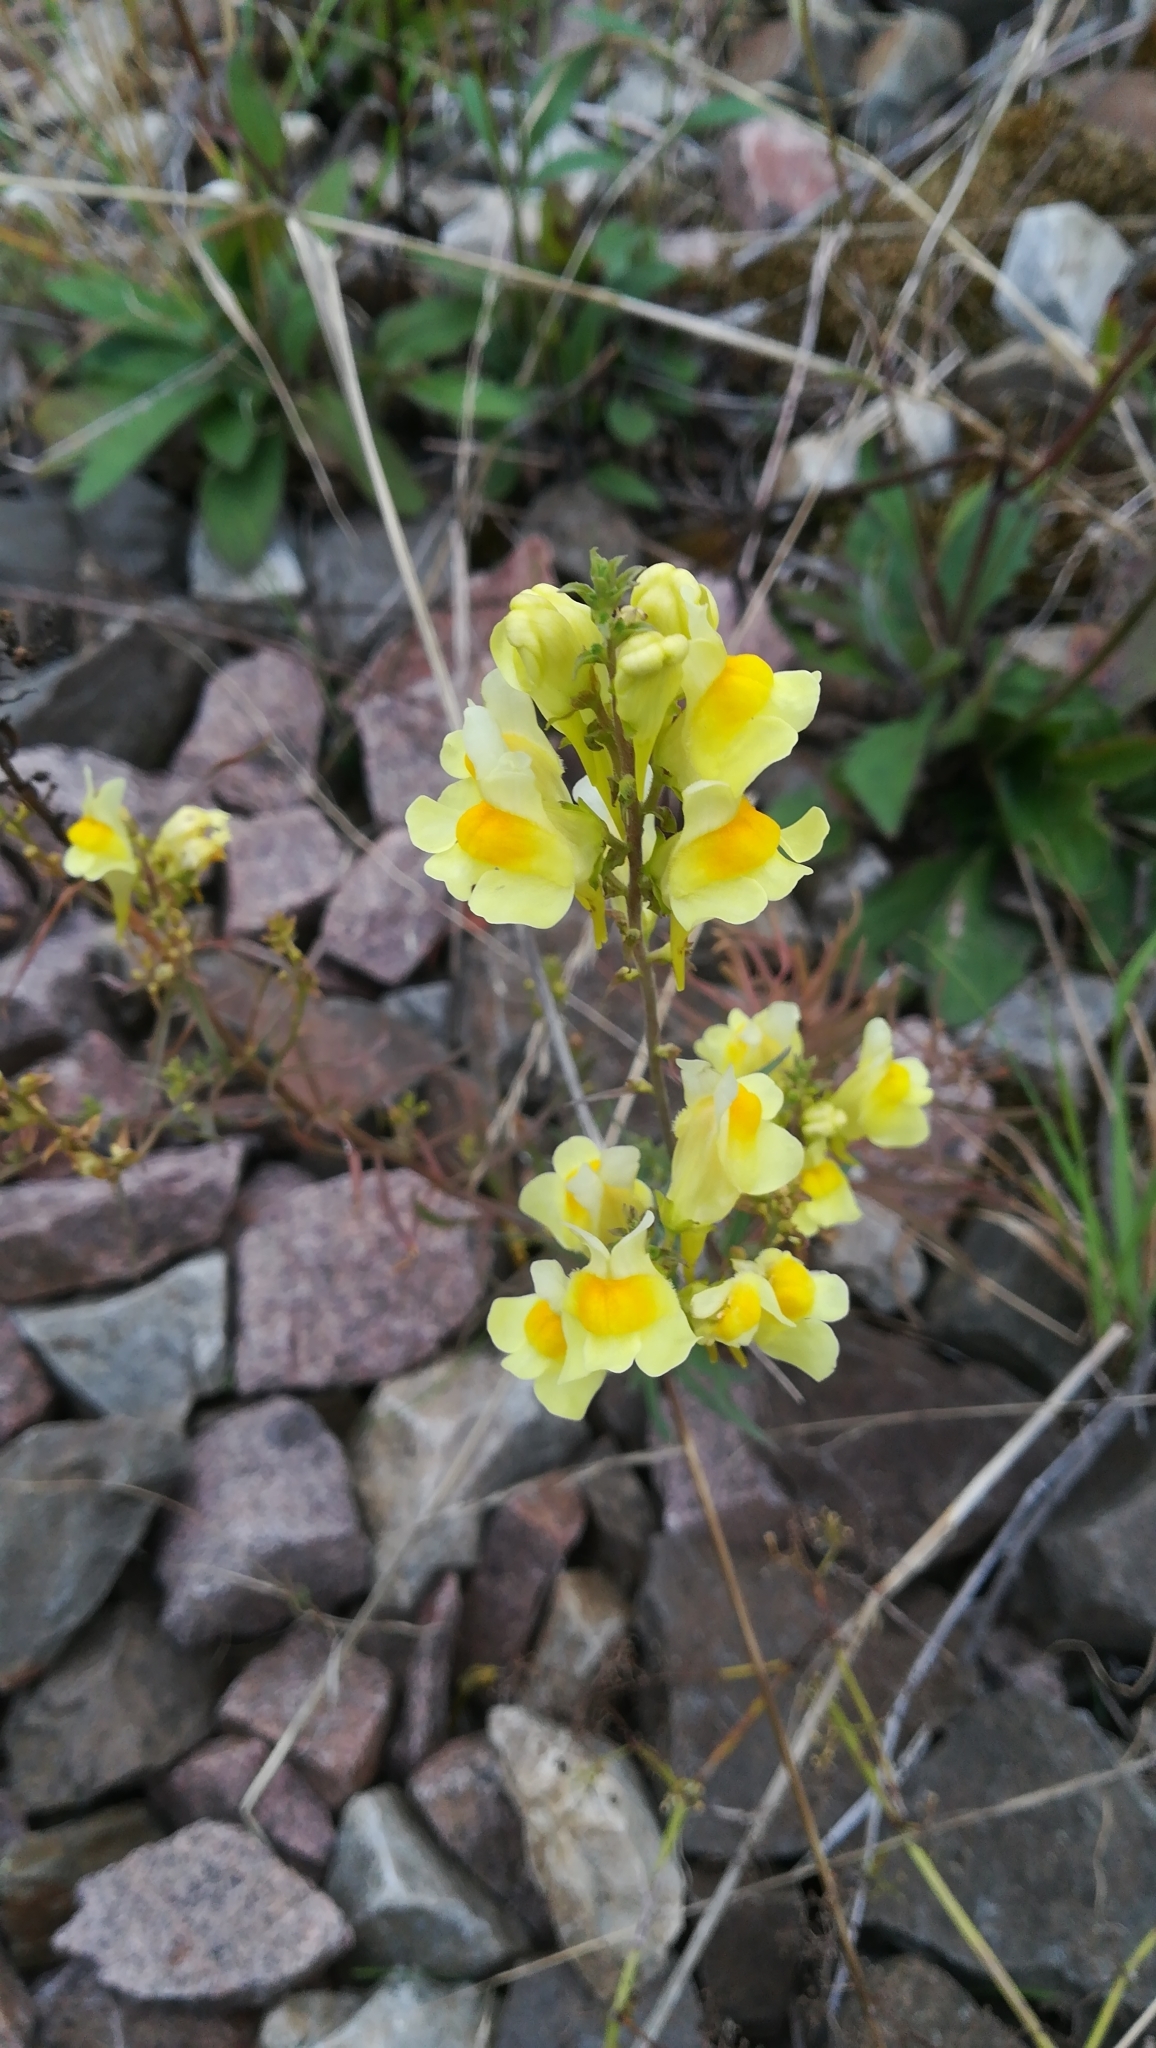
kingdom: Plantae
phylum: Tracheophyta
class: Magnoliopsida
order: Lamiales
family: Plantaginaceae
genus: Linaria
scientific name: Linaria vulgaris
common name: Butter and eggs
